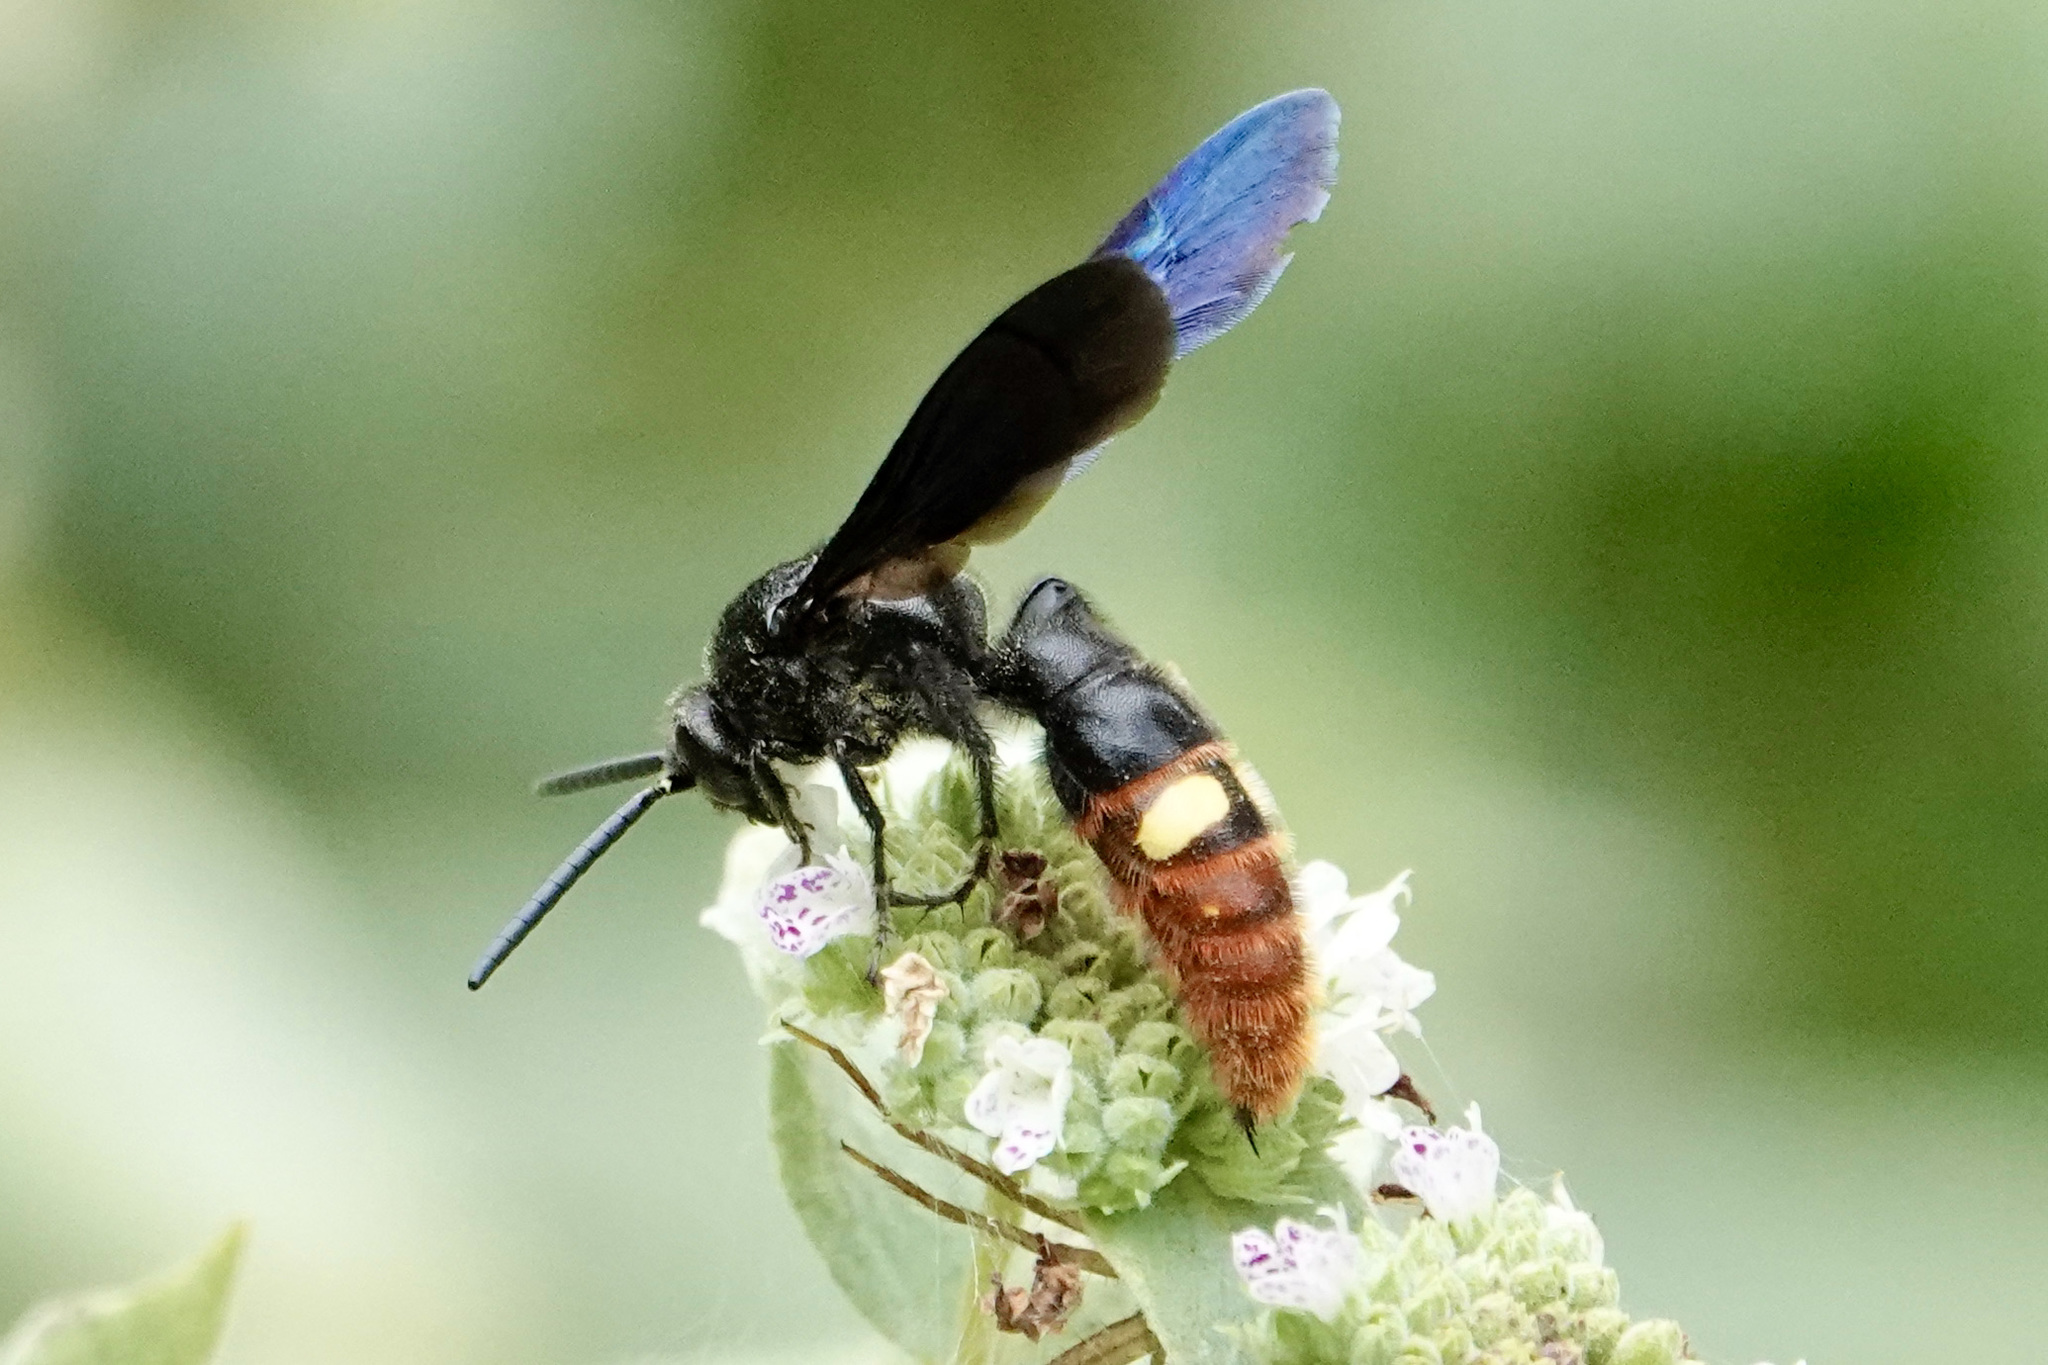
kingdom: Animalia
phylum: Arthropoda
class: Insecta
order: Hymenoptera
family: Scoliidae
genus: Scolia
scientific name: Scolia dubia
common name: Blue-winged scoliid wasp
